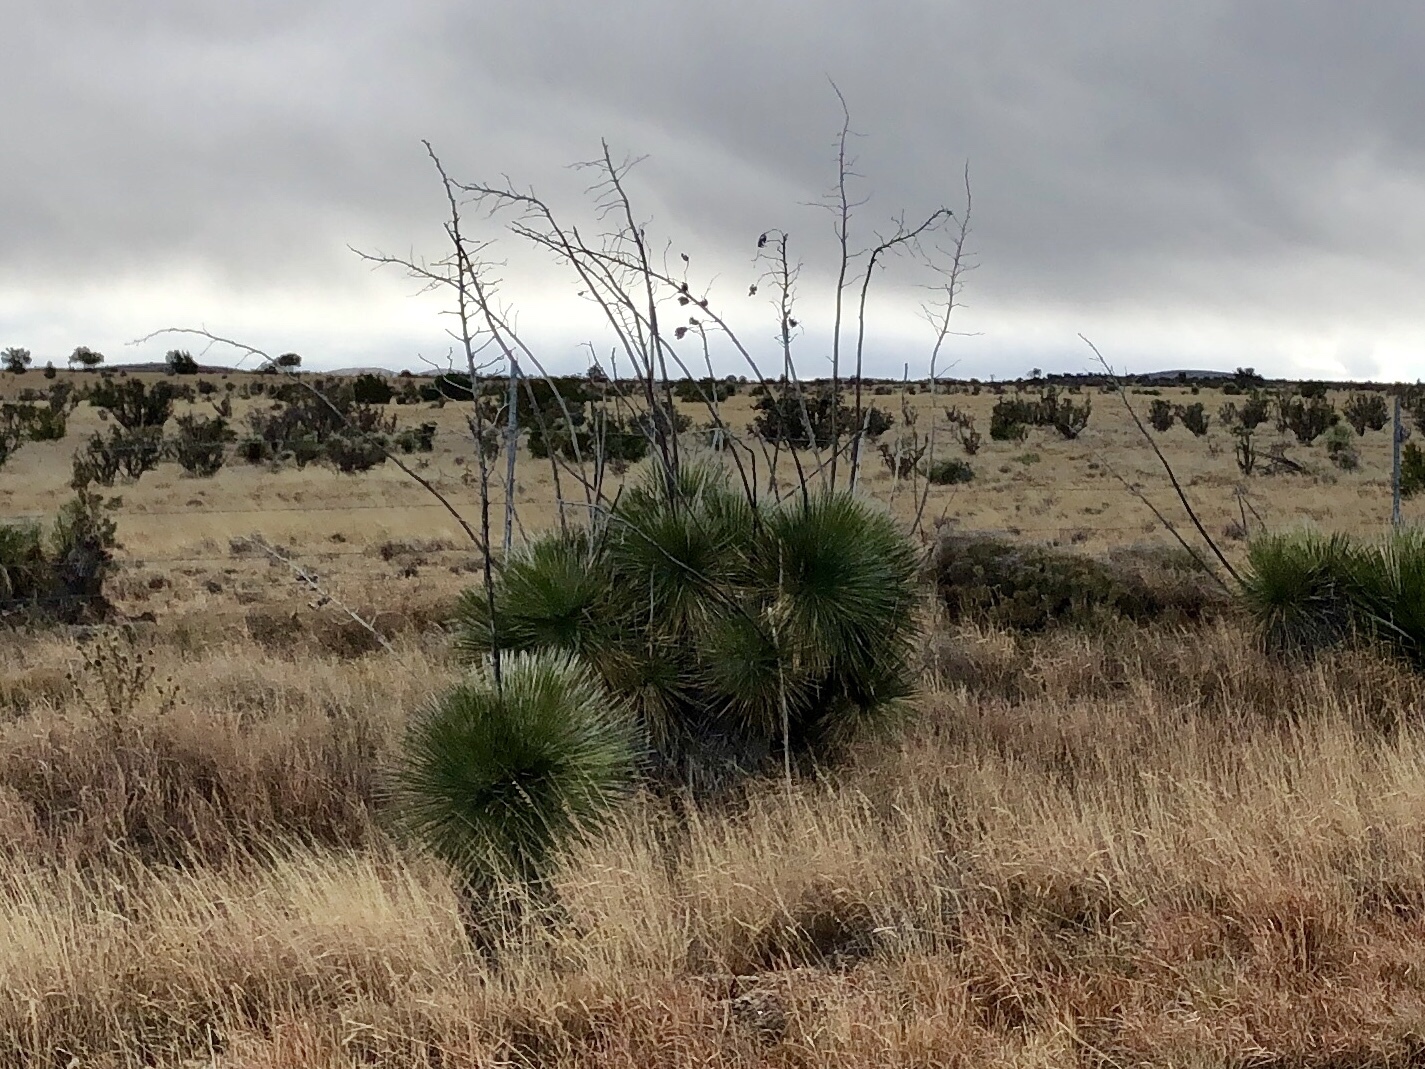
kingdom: Plantae
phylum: Tracheophyta
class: Liliopsida
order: Asparagales
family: Asparagaceae
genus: Yucca
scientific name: Yucca elata
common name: Palmella
